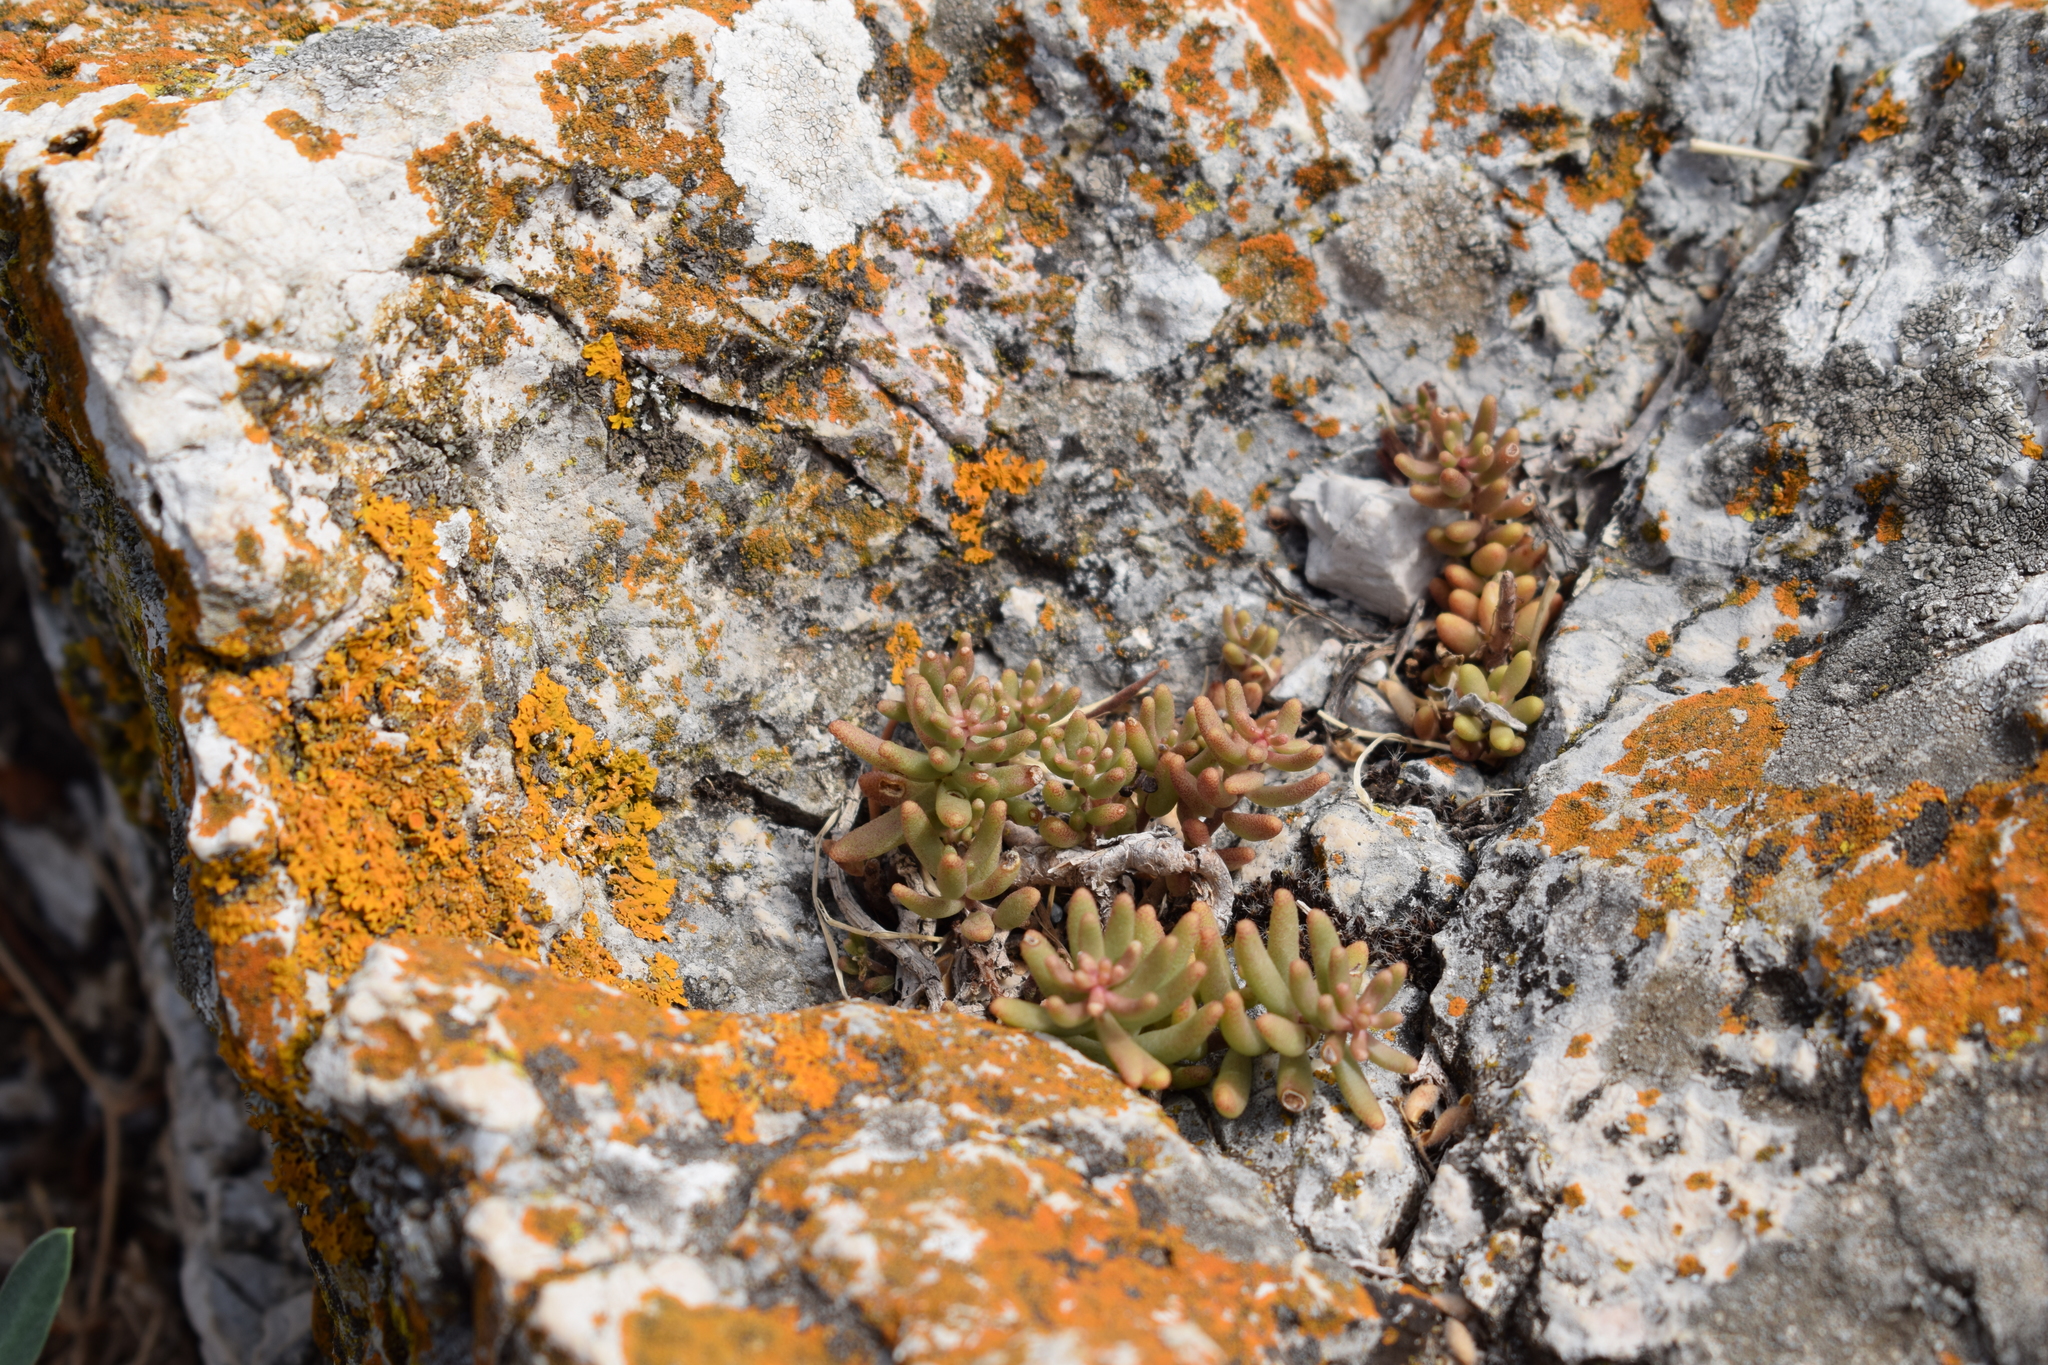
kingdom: Plantae
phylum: Tracheophyta
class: Magnoliopsida
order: Saxifragales
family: Crassulaceae
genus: Sedum
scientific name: Sedum album
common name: White stonecrop
